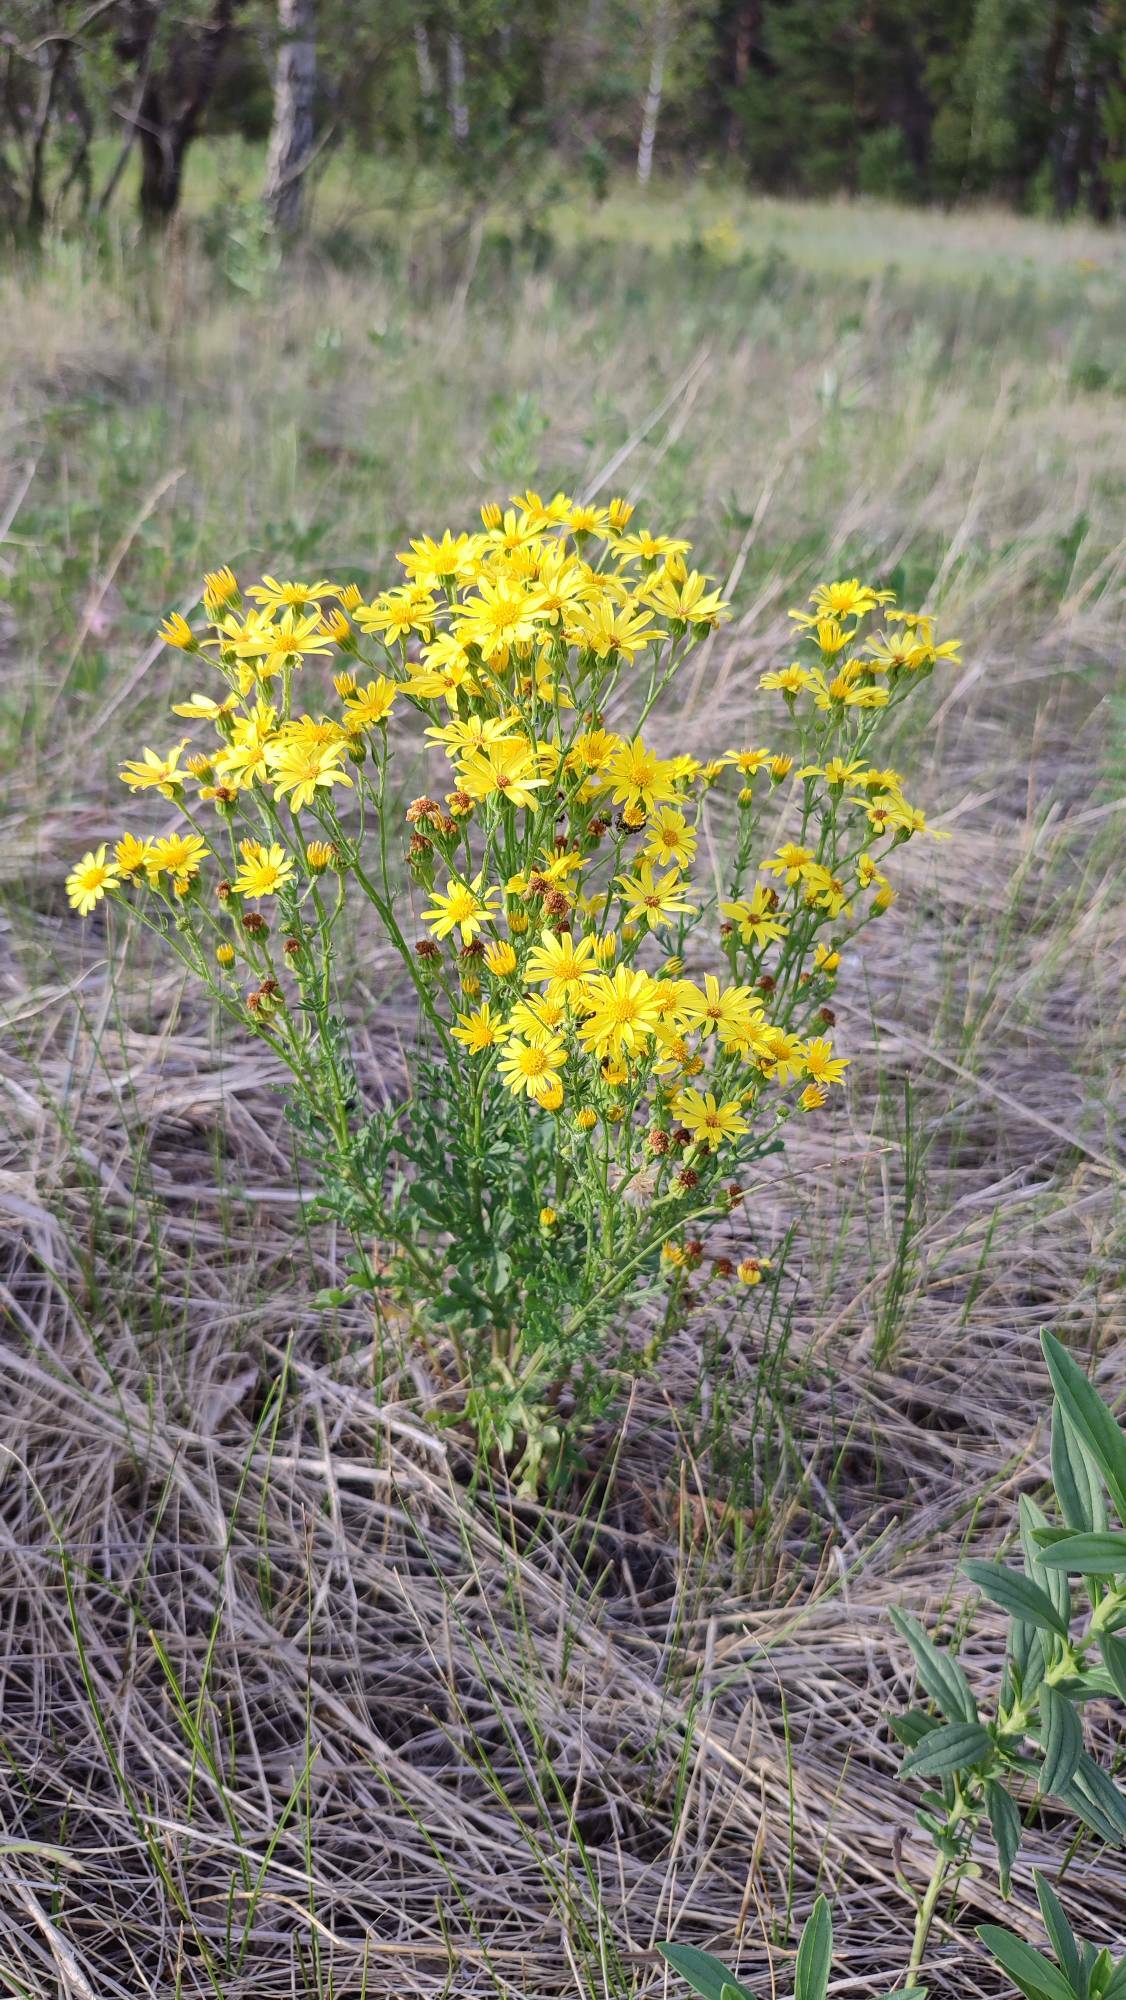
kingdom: Plantae
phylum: Tracheophyta
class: Magnoliopsida
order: Asterales
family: Asteraceae
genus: Jacobaea
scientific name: Jacobaea erucifolia
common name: Hoary ragwort
